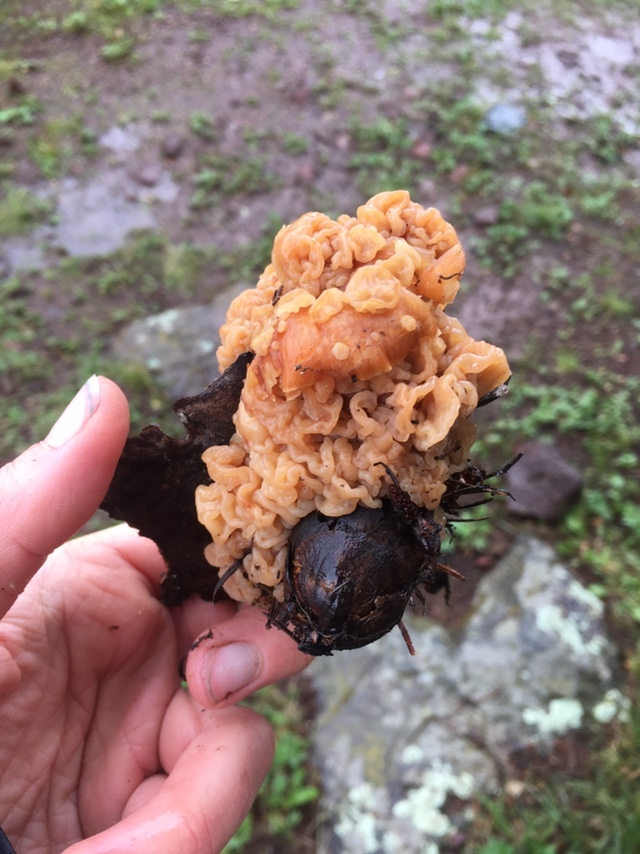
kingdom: Fungi
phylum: Basidiomycota
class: Tremellomycetes
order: Filobasidiales
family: Filobasidiaceae
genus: Syzygospora
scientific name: Syzygospora mycetophila
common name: Collybia clouds
